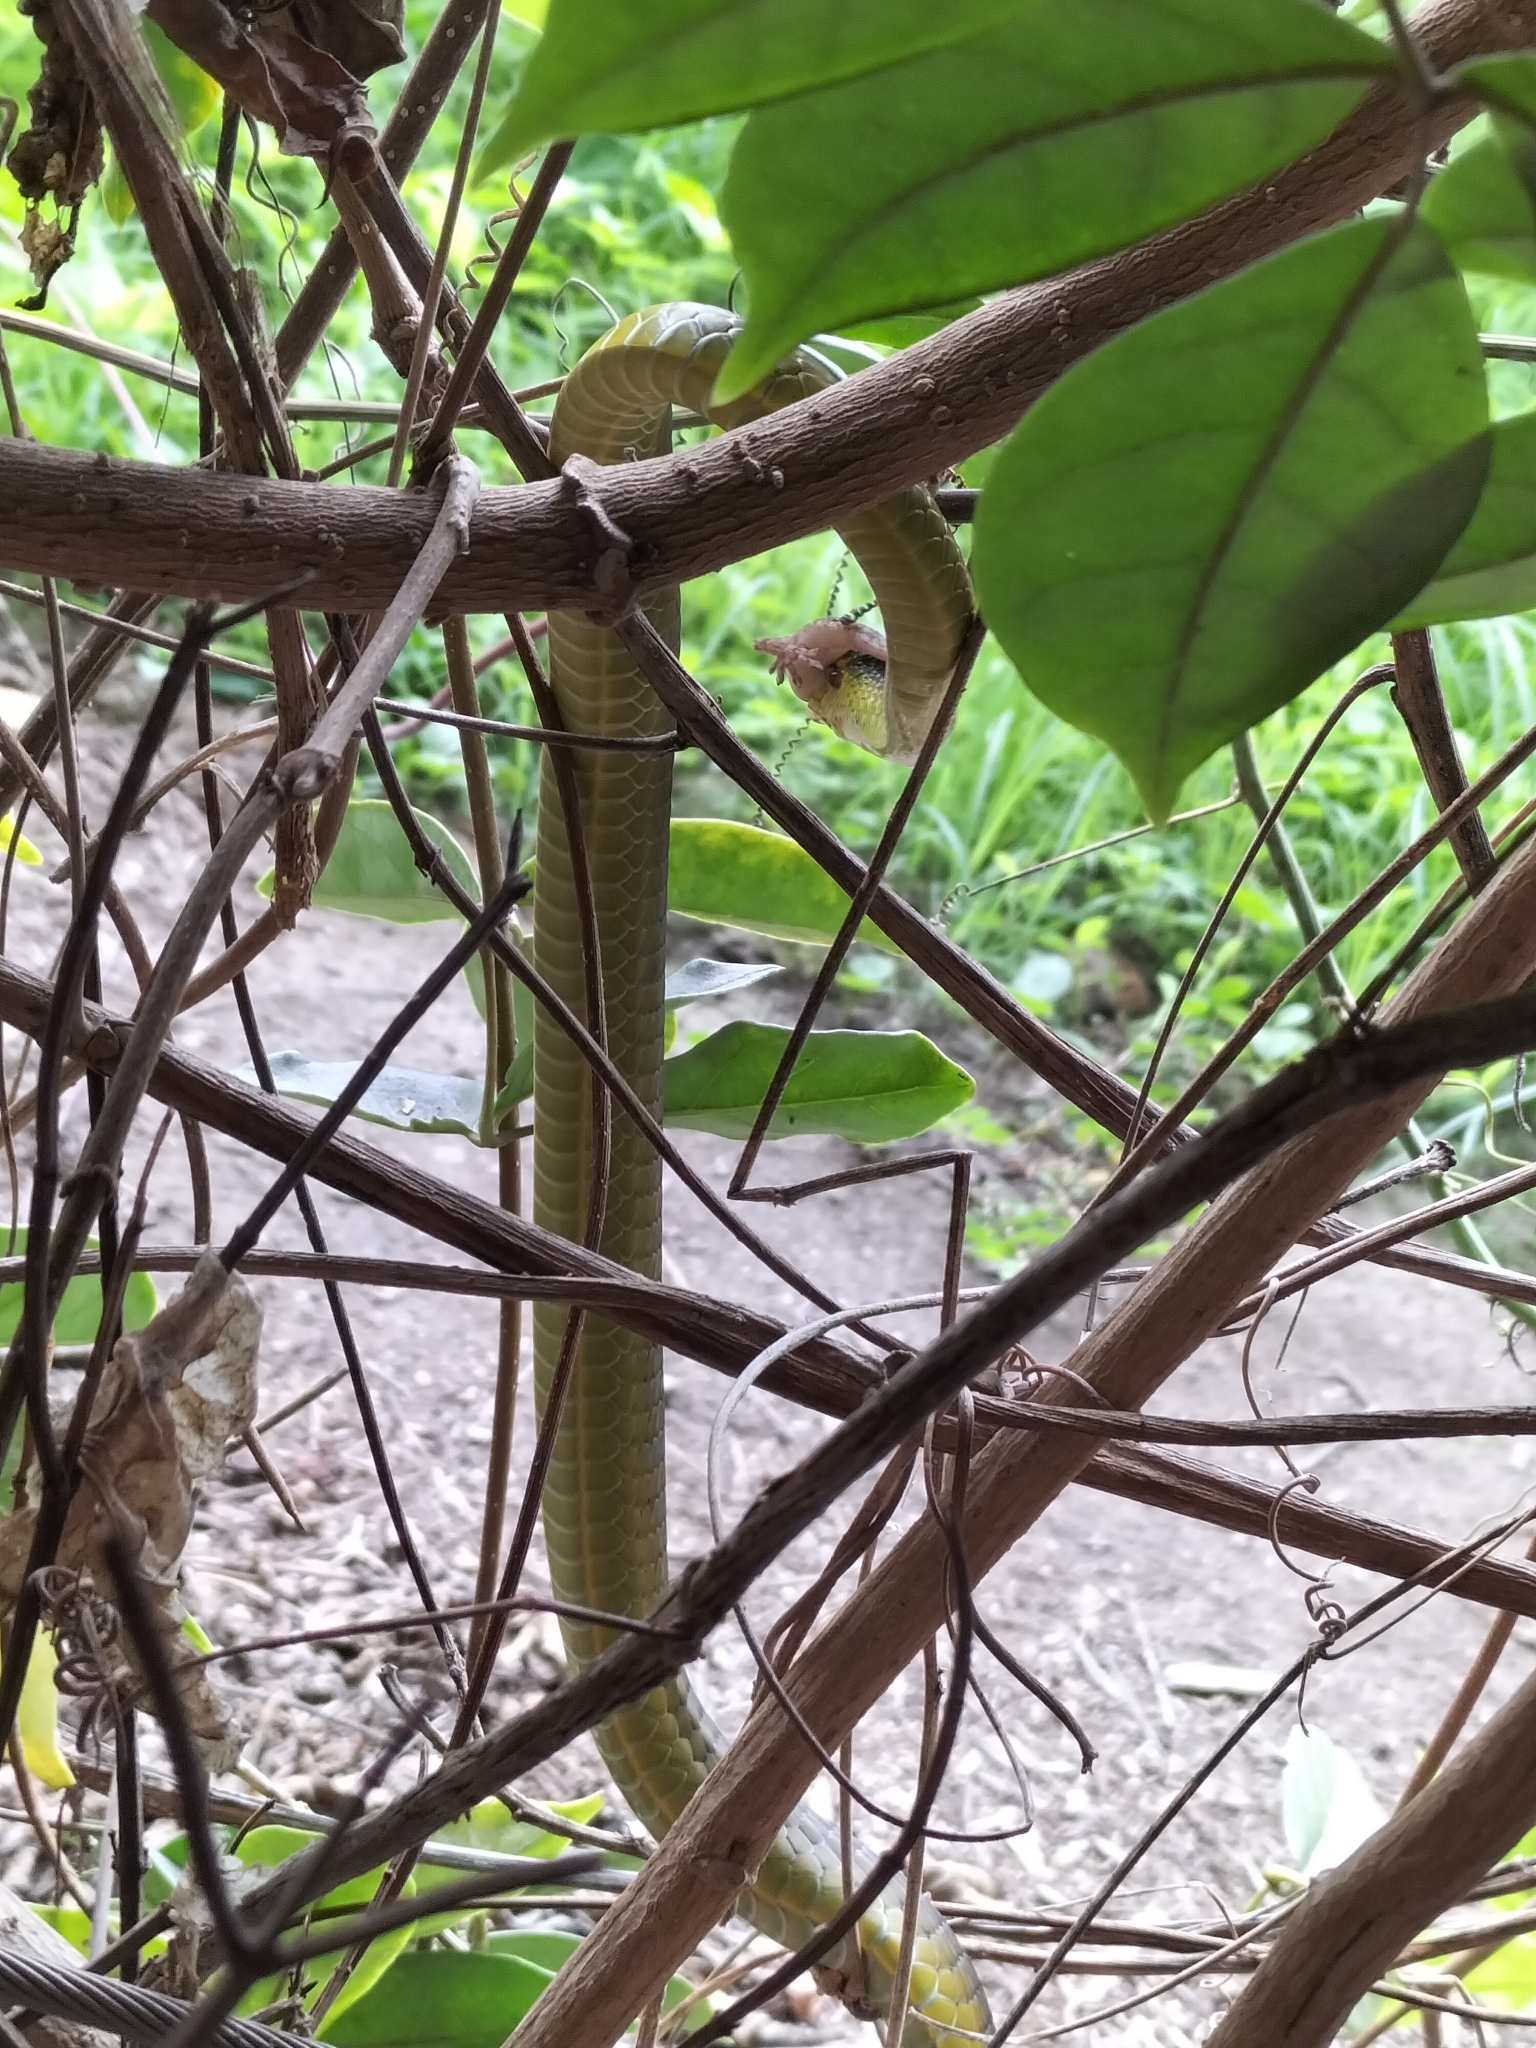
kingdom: Animalia
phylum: Chordata
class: Squamata
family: Colubridae
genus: Dendrelaphis
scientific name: Dendrelaphis punctulatus
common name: Common tree snake
